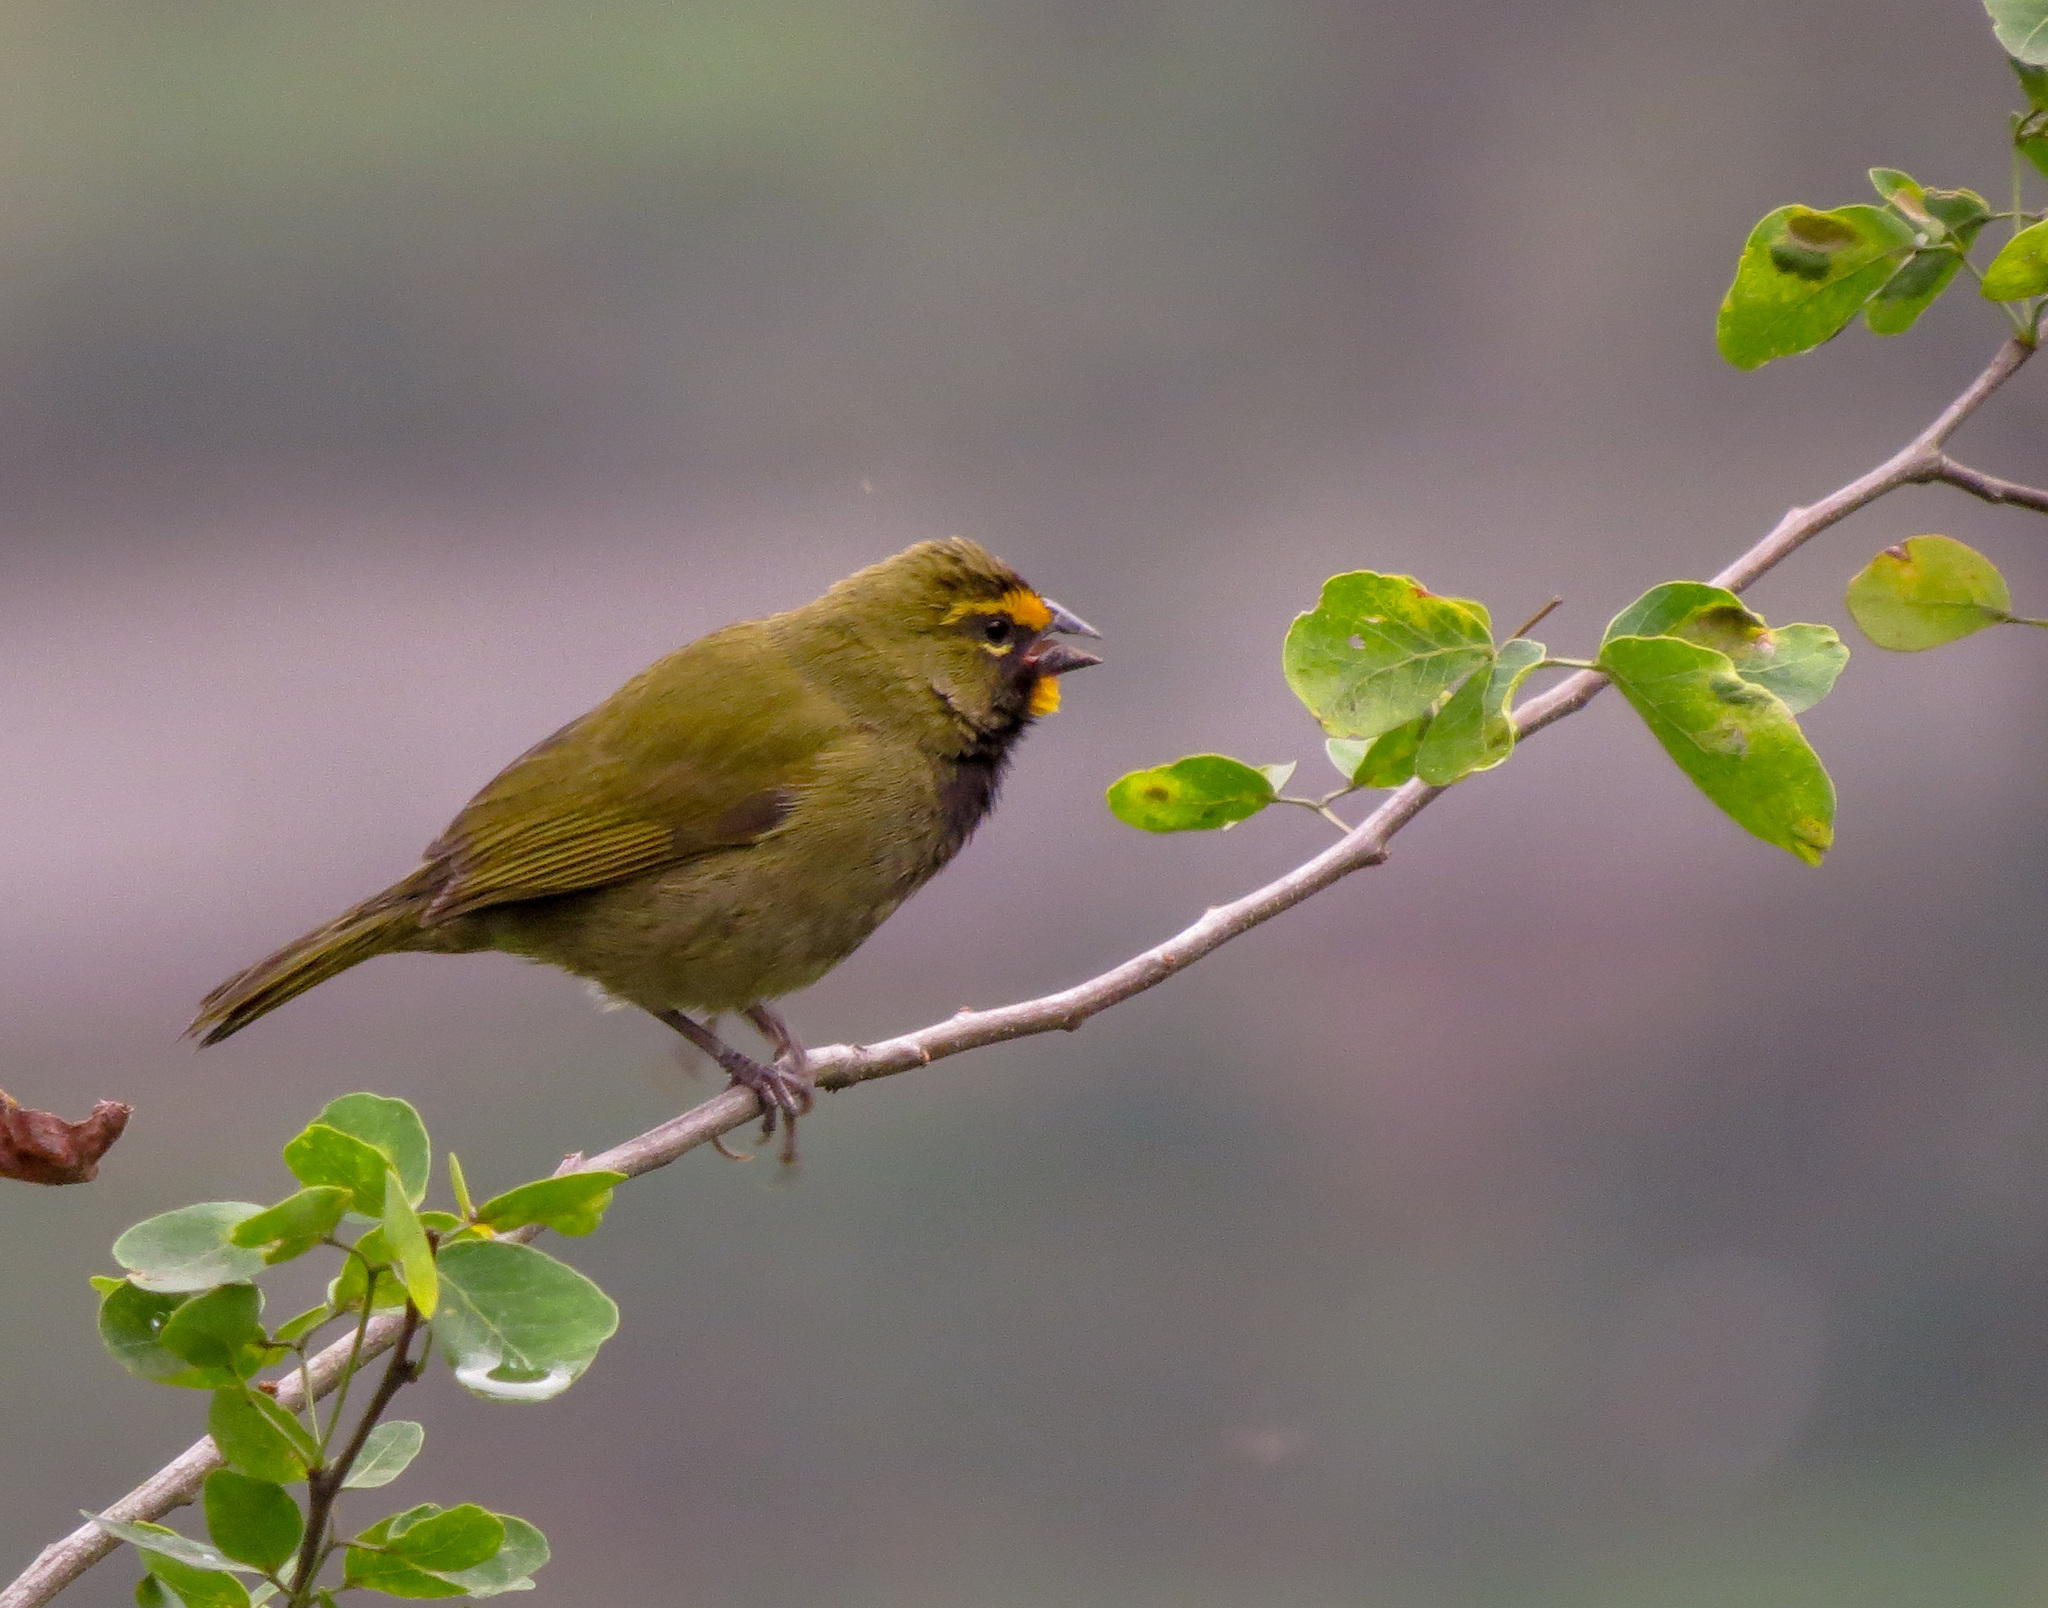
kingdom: Animalia
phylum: Chordata
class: Aves
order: Passeriformes
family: Thraupidae
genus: Tiaris
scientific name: Tiaris olivaceus
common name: Yellow-faced grassquit
